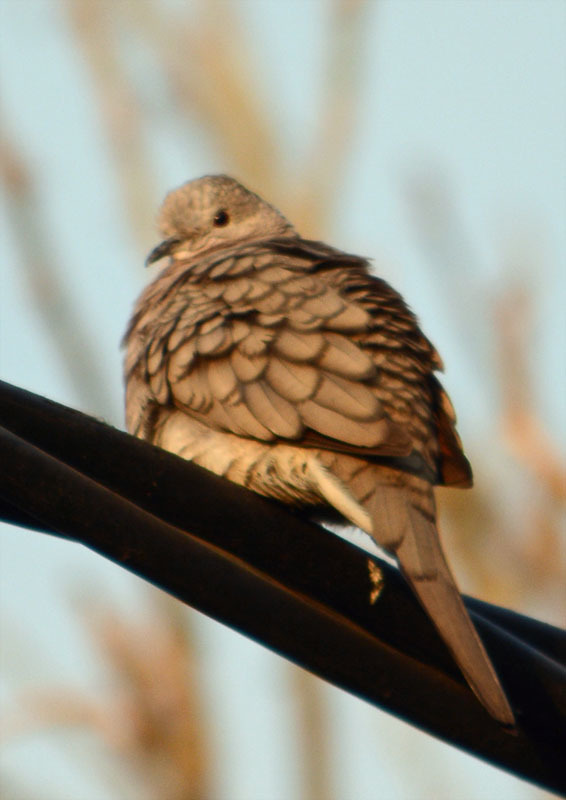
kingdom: Animalia
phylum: Chordata
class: Aves
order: Columbiformes
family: Columbidae
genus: Columbina
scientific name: Columbina inca
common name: Inca dove
